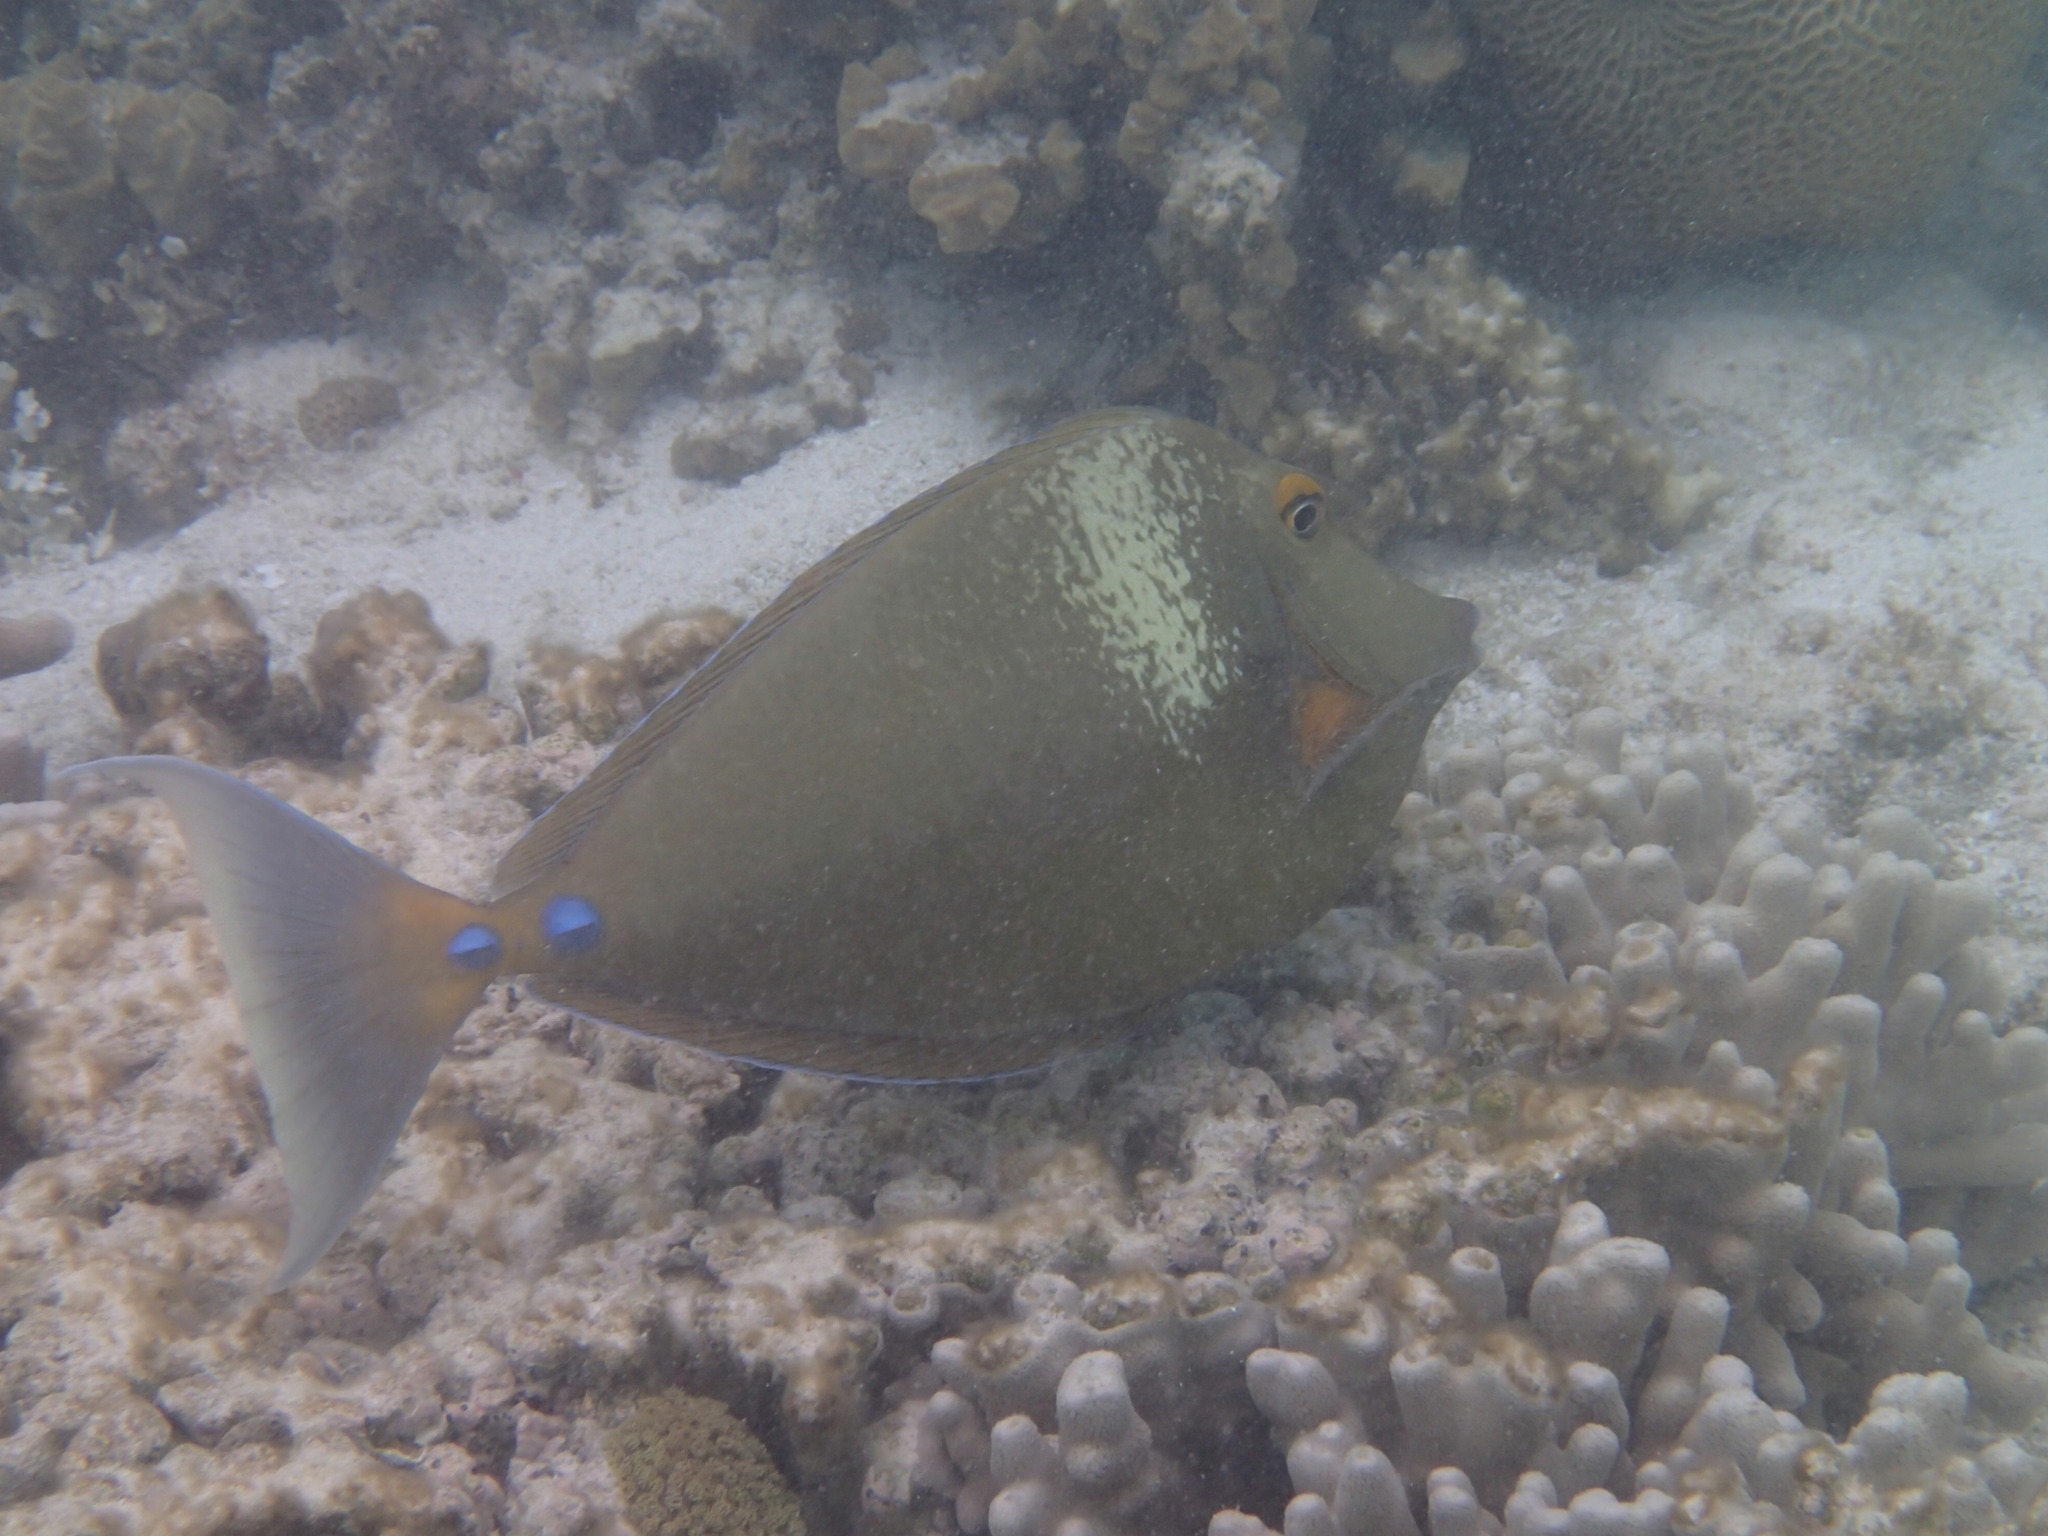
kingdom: Animalia
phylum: Chordata
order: Perciformes
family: Acanthuridae
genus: Naso
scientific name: Naso unicornis
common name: Bluespine unicornfish
